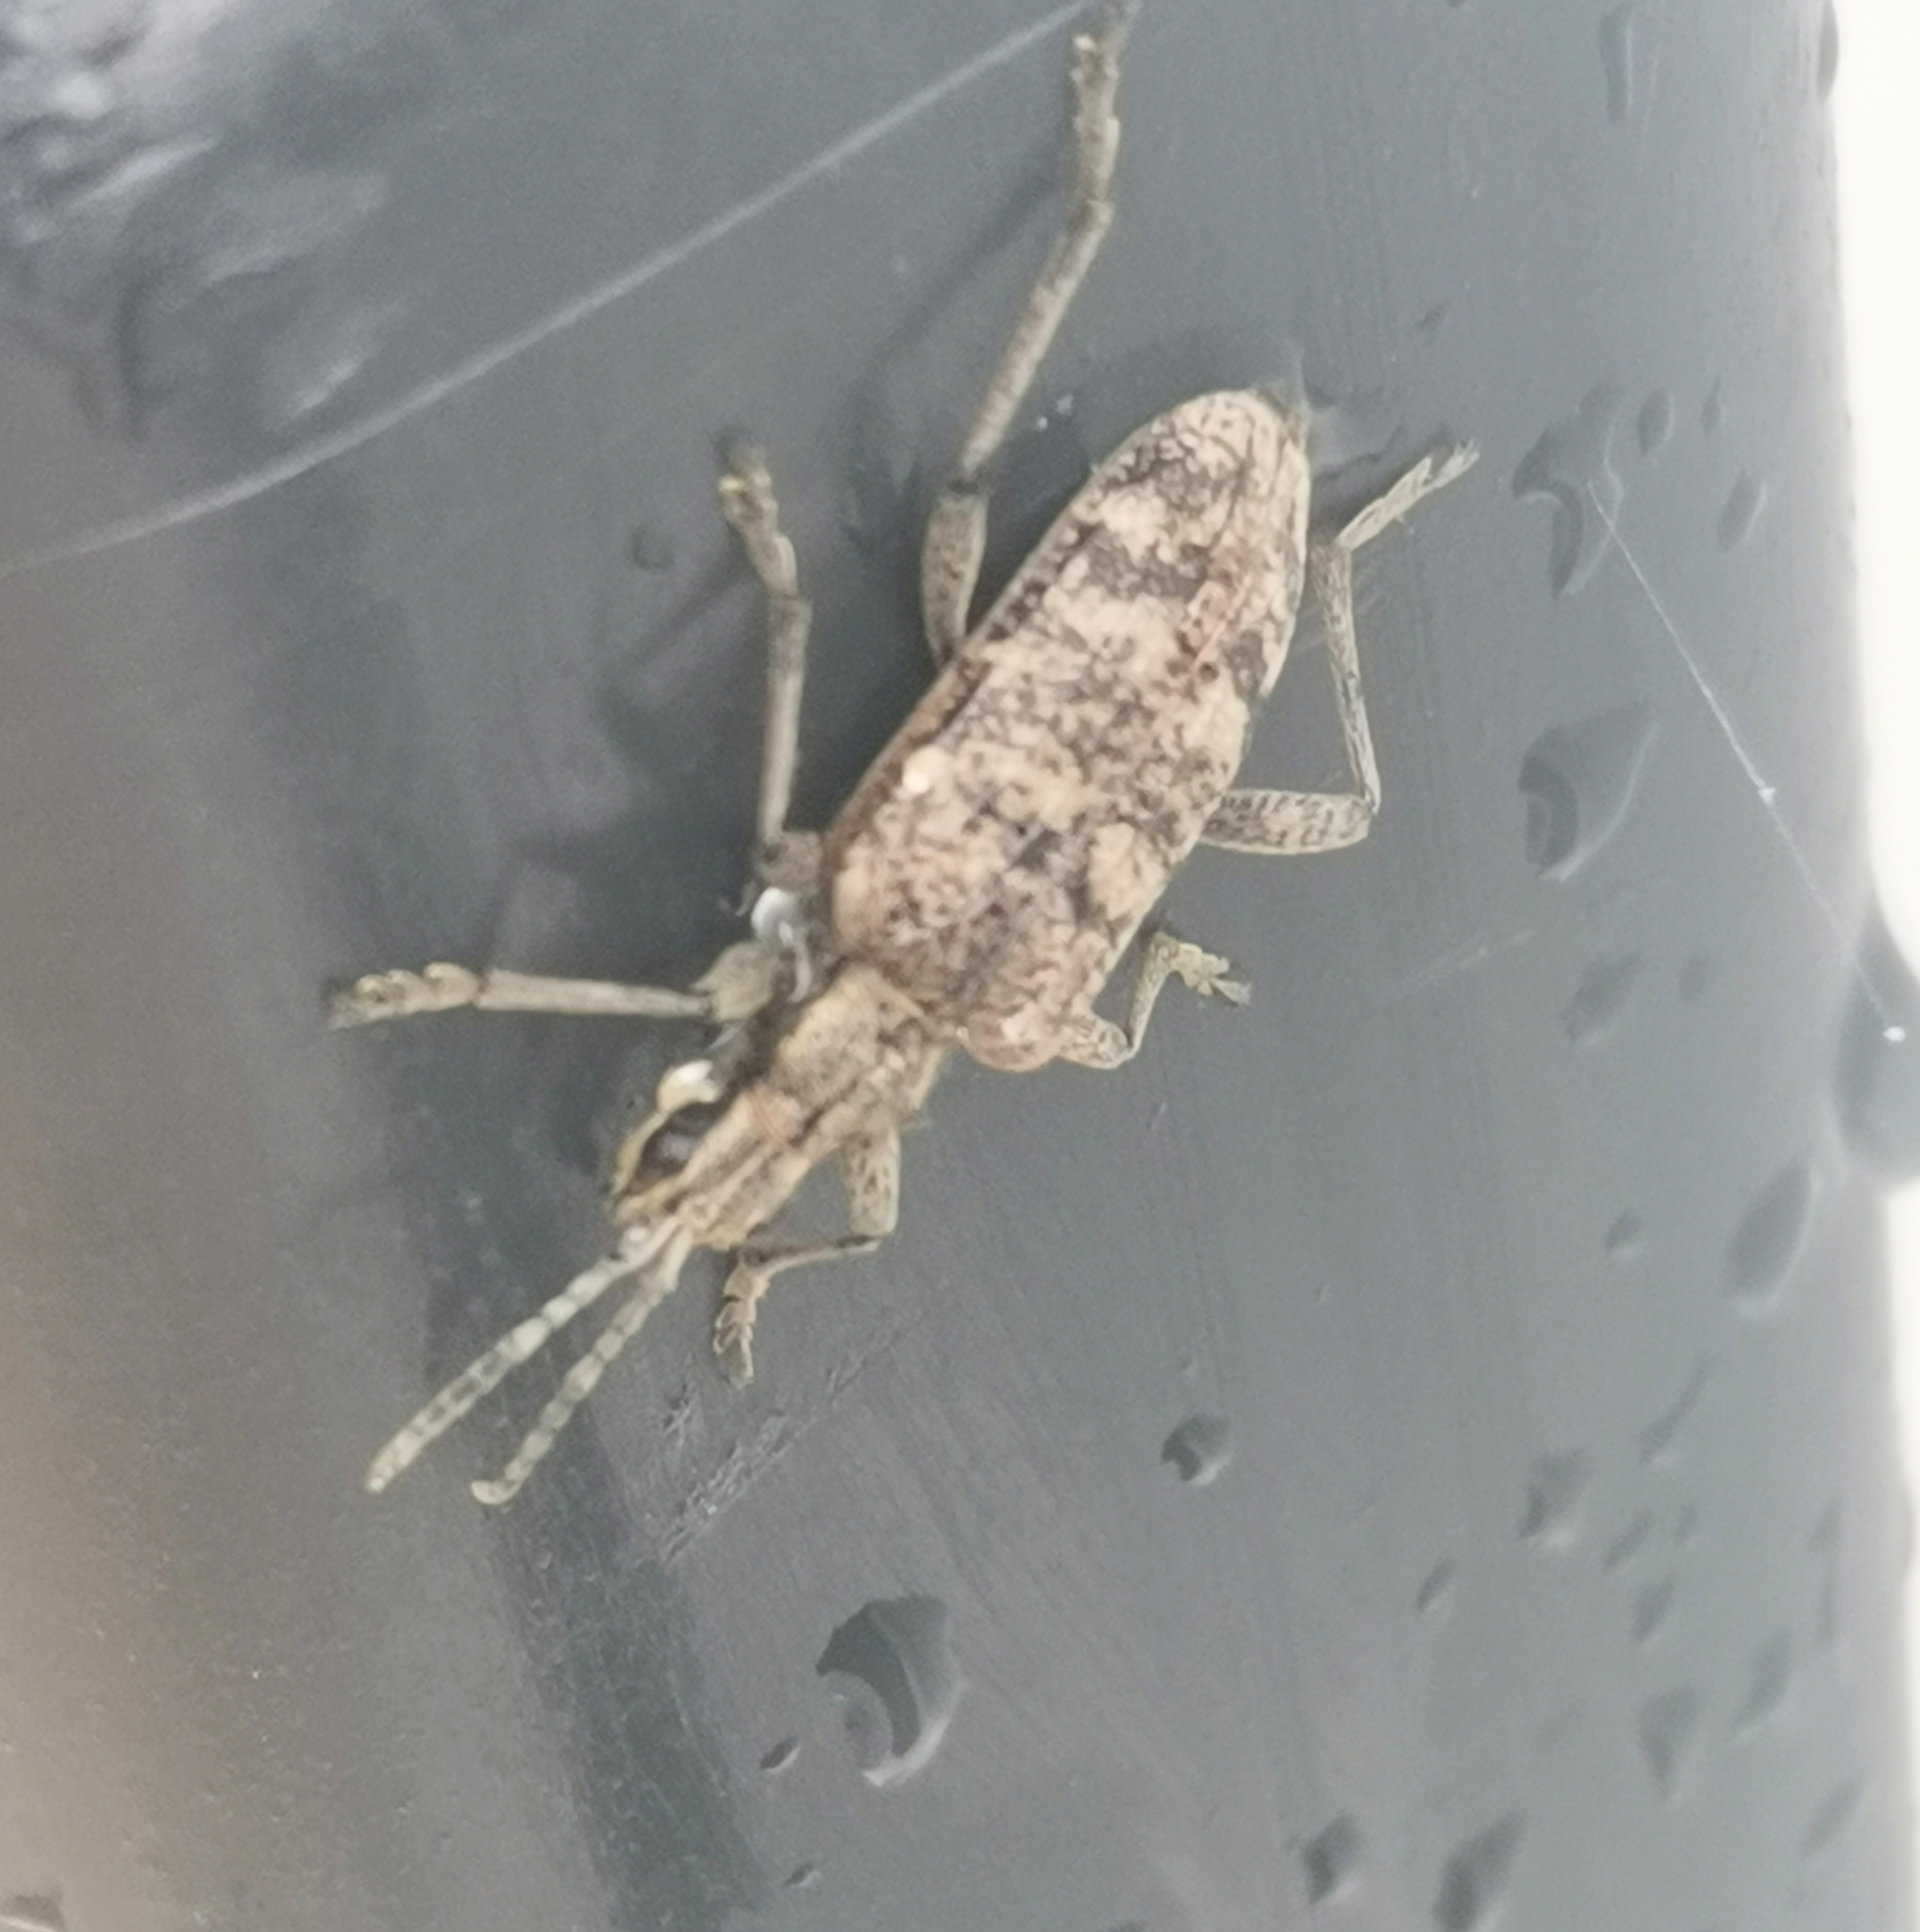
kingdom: Animalia
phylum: Arthropoda
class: Insecta
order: Coleoptera
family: Cerambycidae
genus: Rhagium
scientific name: Rhagium inquisitor
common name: Ribbed pine borer
